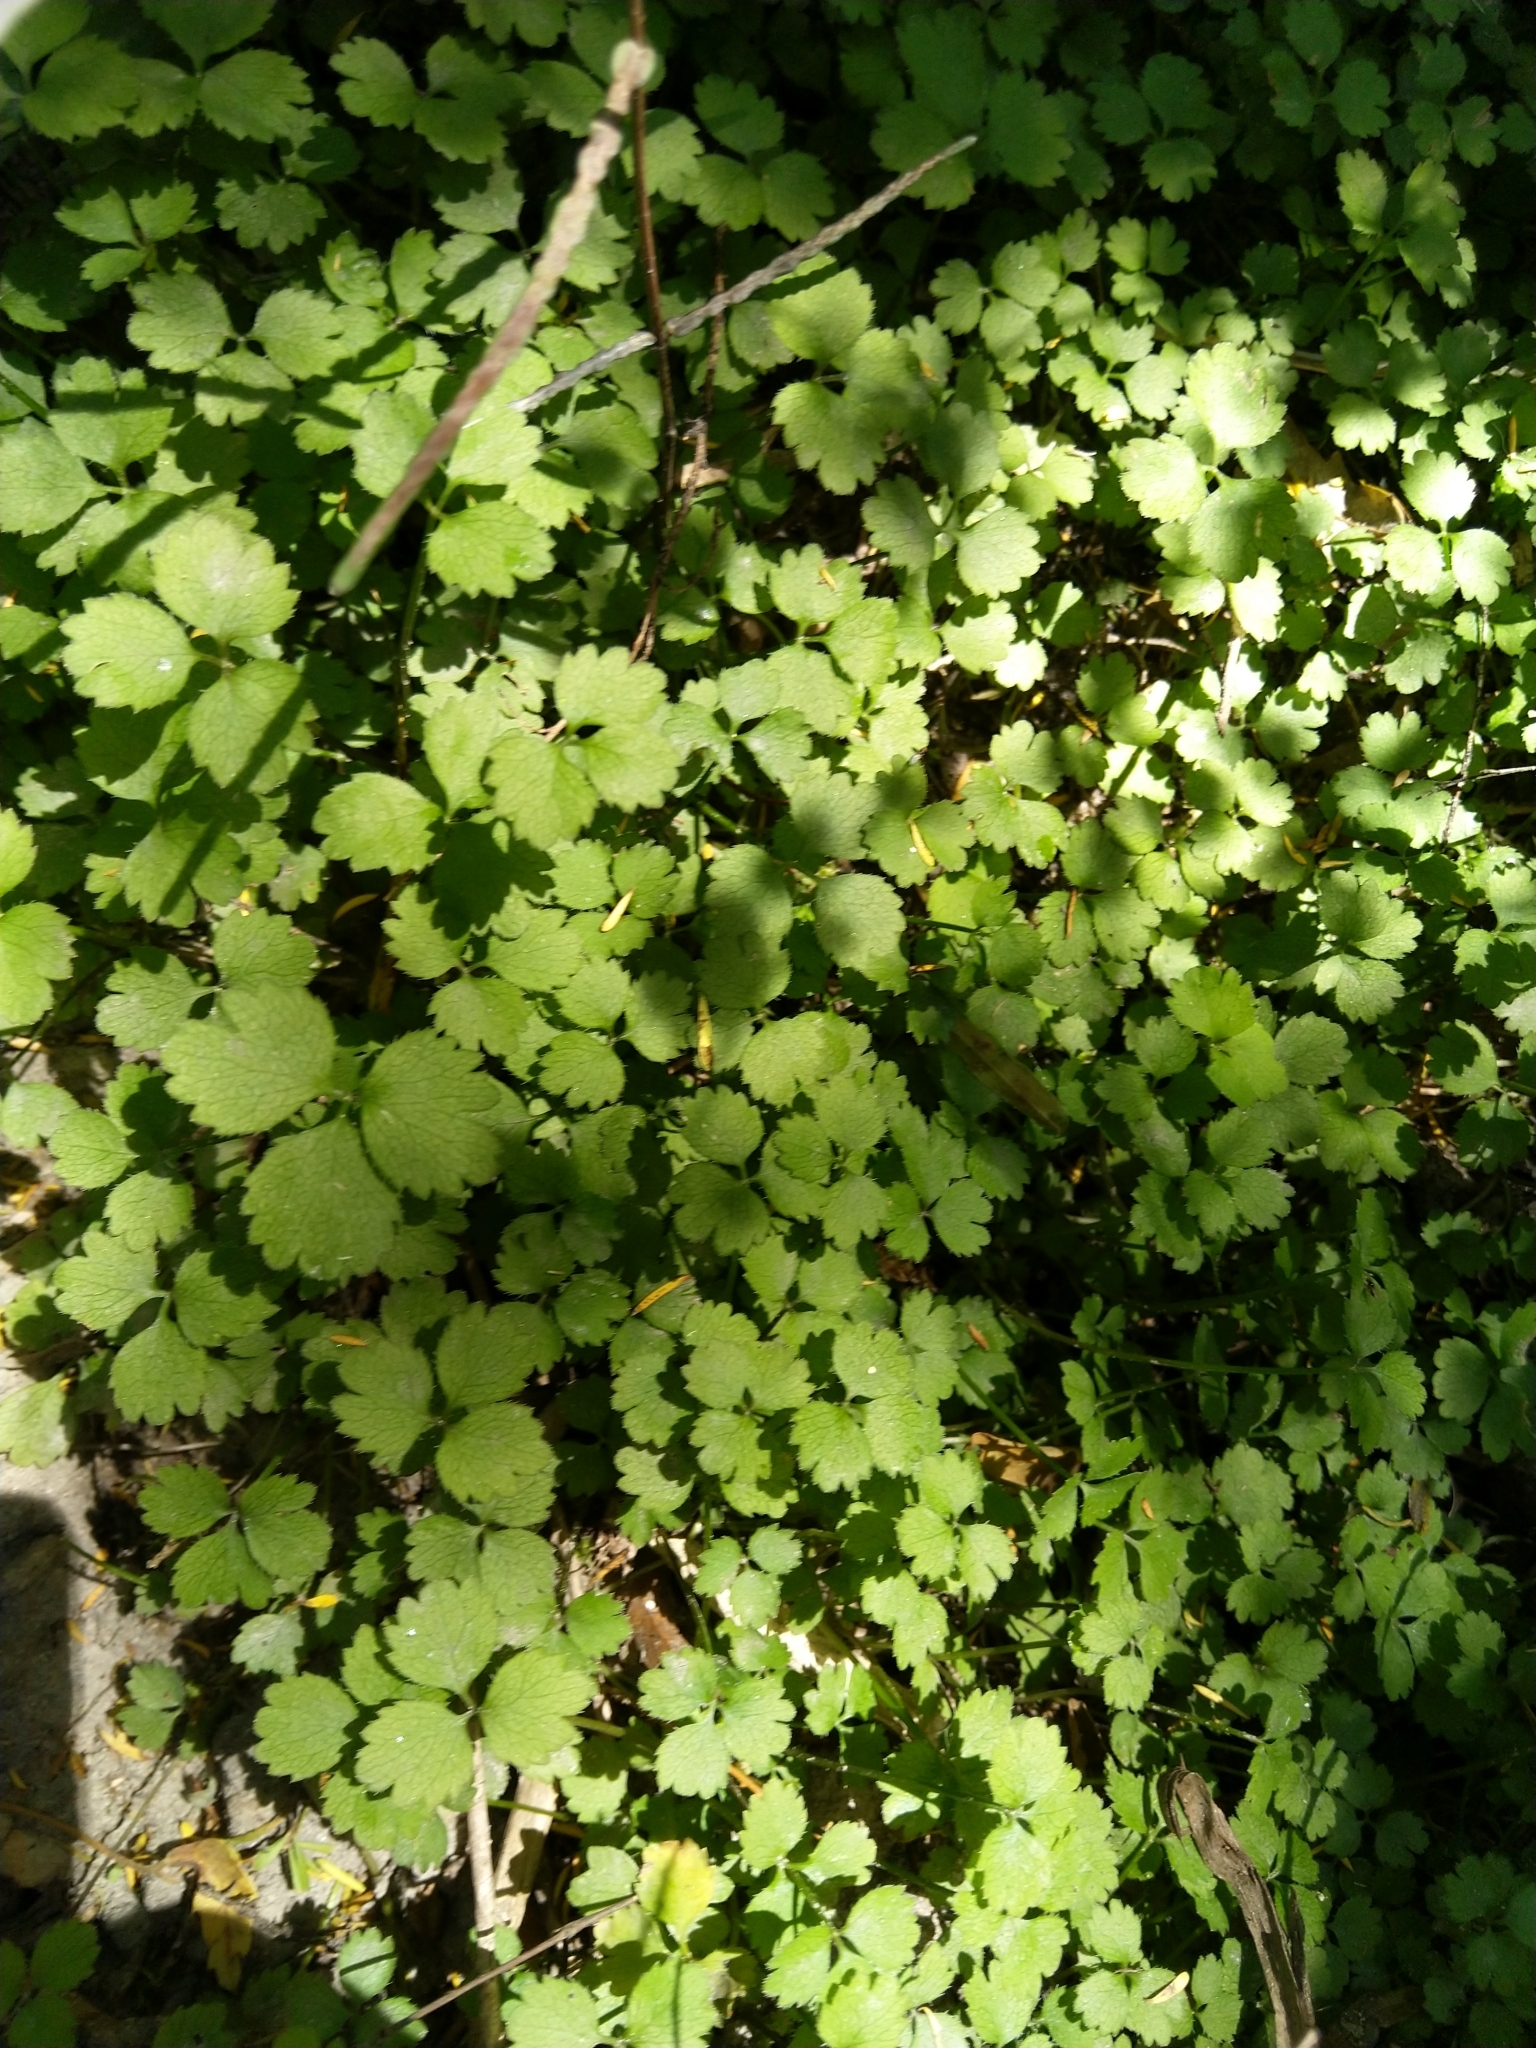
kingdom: Plantae
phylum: Tracheophyta
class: Magnoliopsida
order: Apiales
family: Apiaceae
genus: Azorella
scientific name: Azorella hookeri
